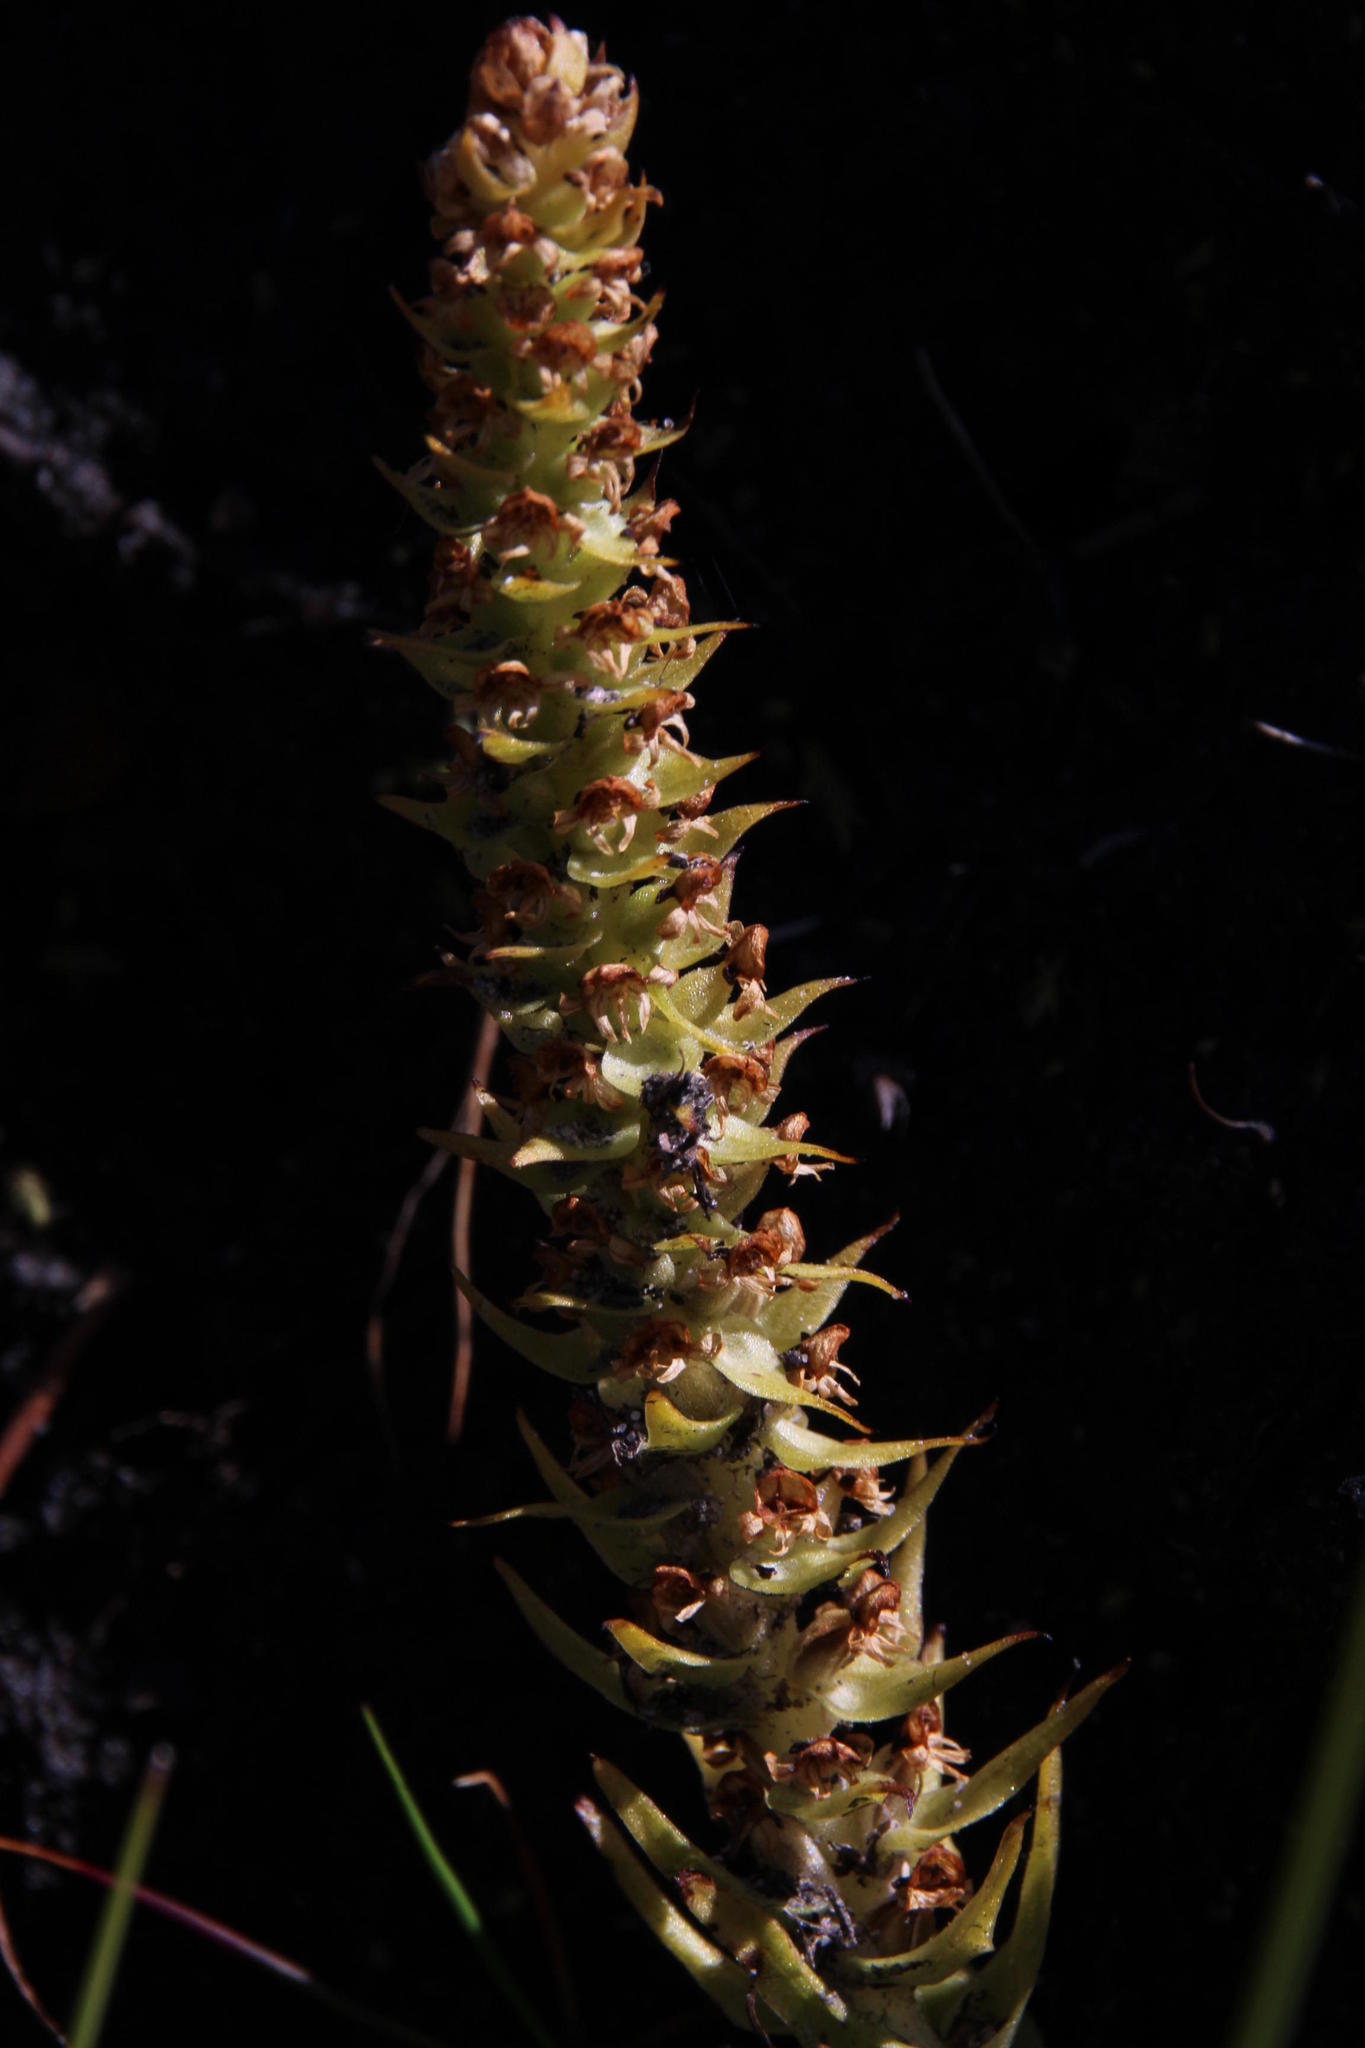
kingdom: Plantae
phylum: Tracheophyta
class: Liliopsida
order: Asparagales
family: Orchidaceae
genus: Satyrium
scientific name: Satyrium bicallosum
